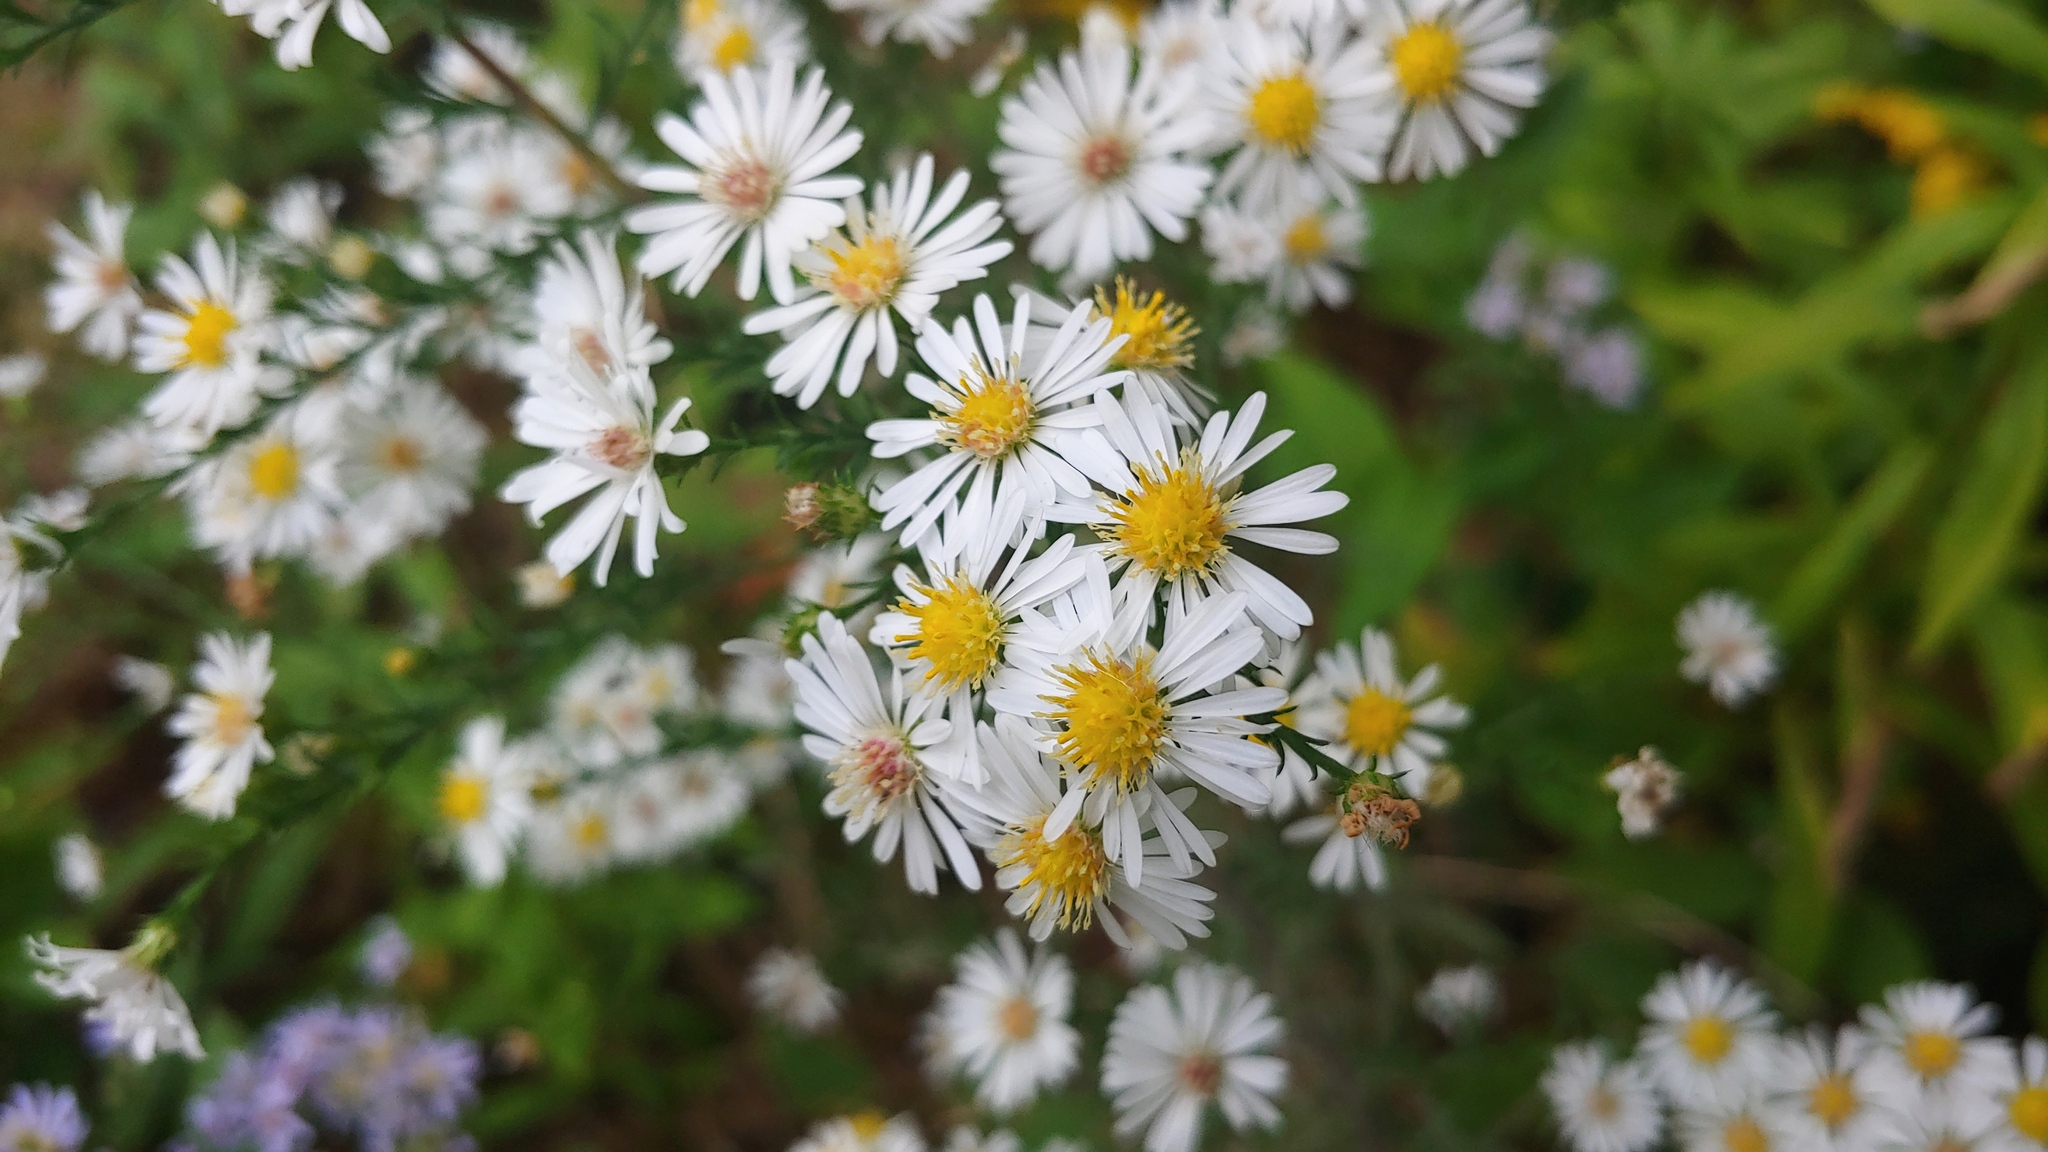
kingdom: Plantae
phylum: Tracheophyta
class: Magnoliopsida
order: Asterales
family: Asteraceae
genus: Symphyotrichum
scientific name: Symphyotrichum pilosum
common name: Awl aster
